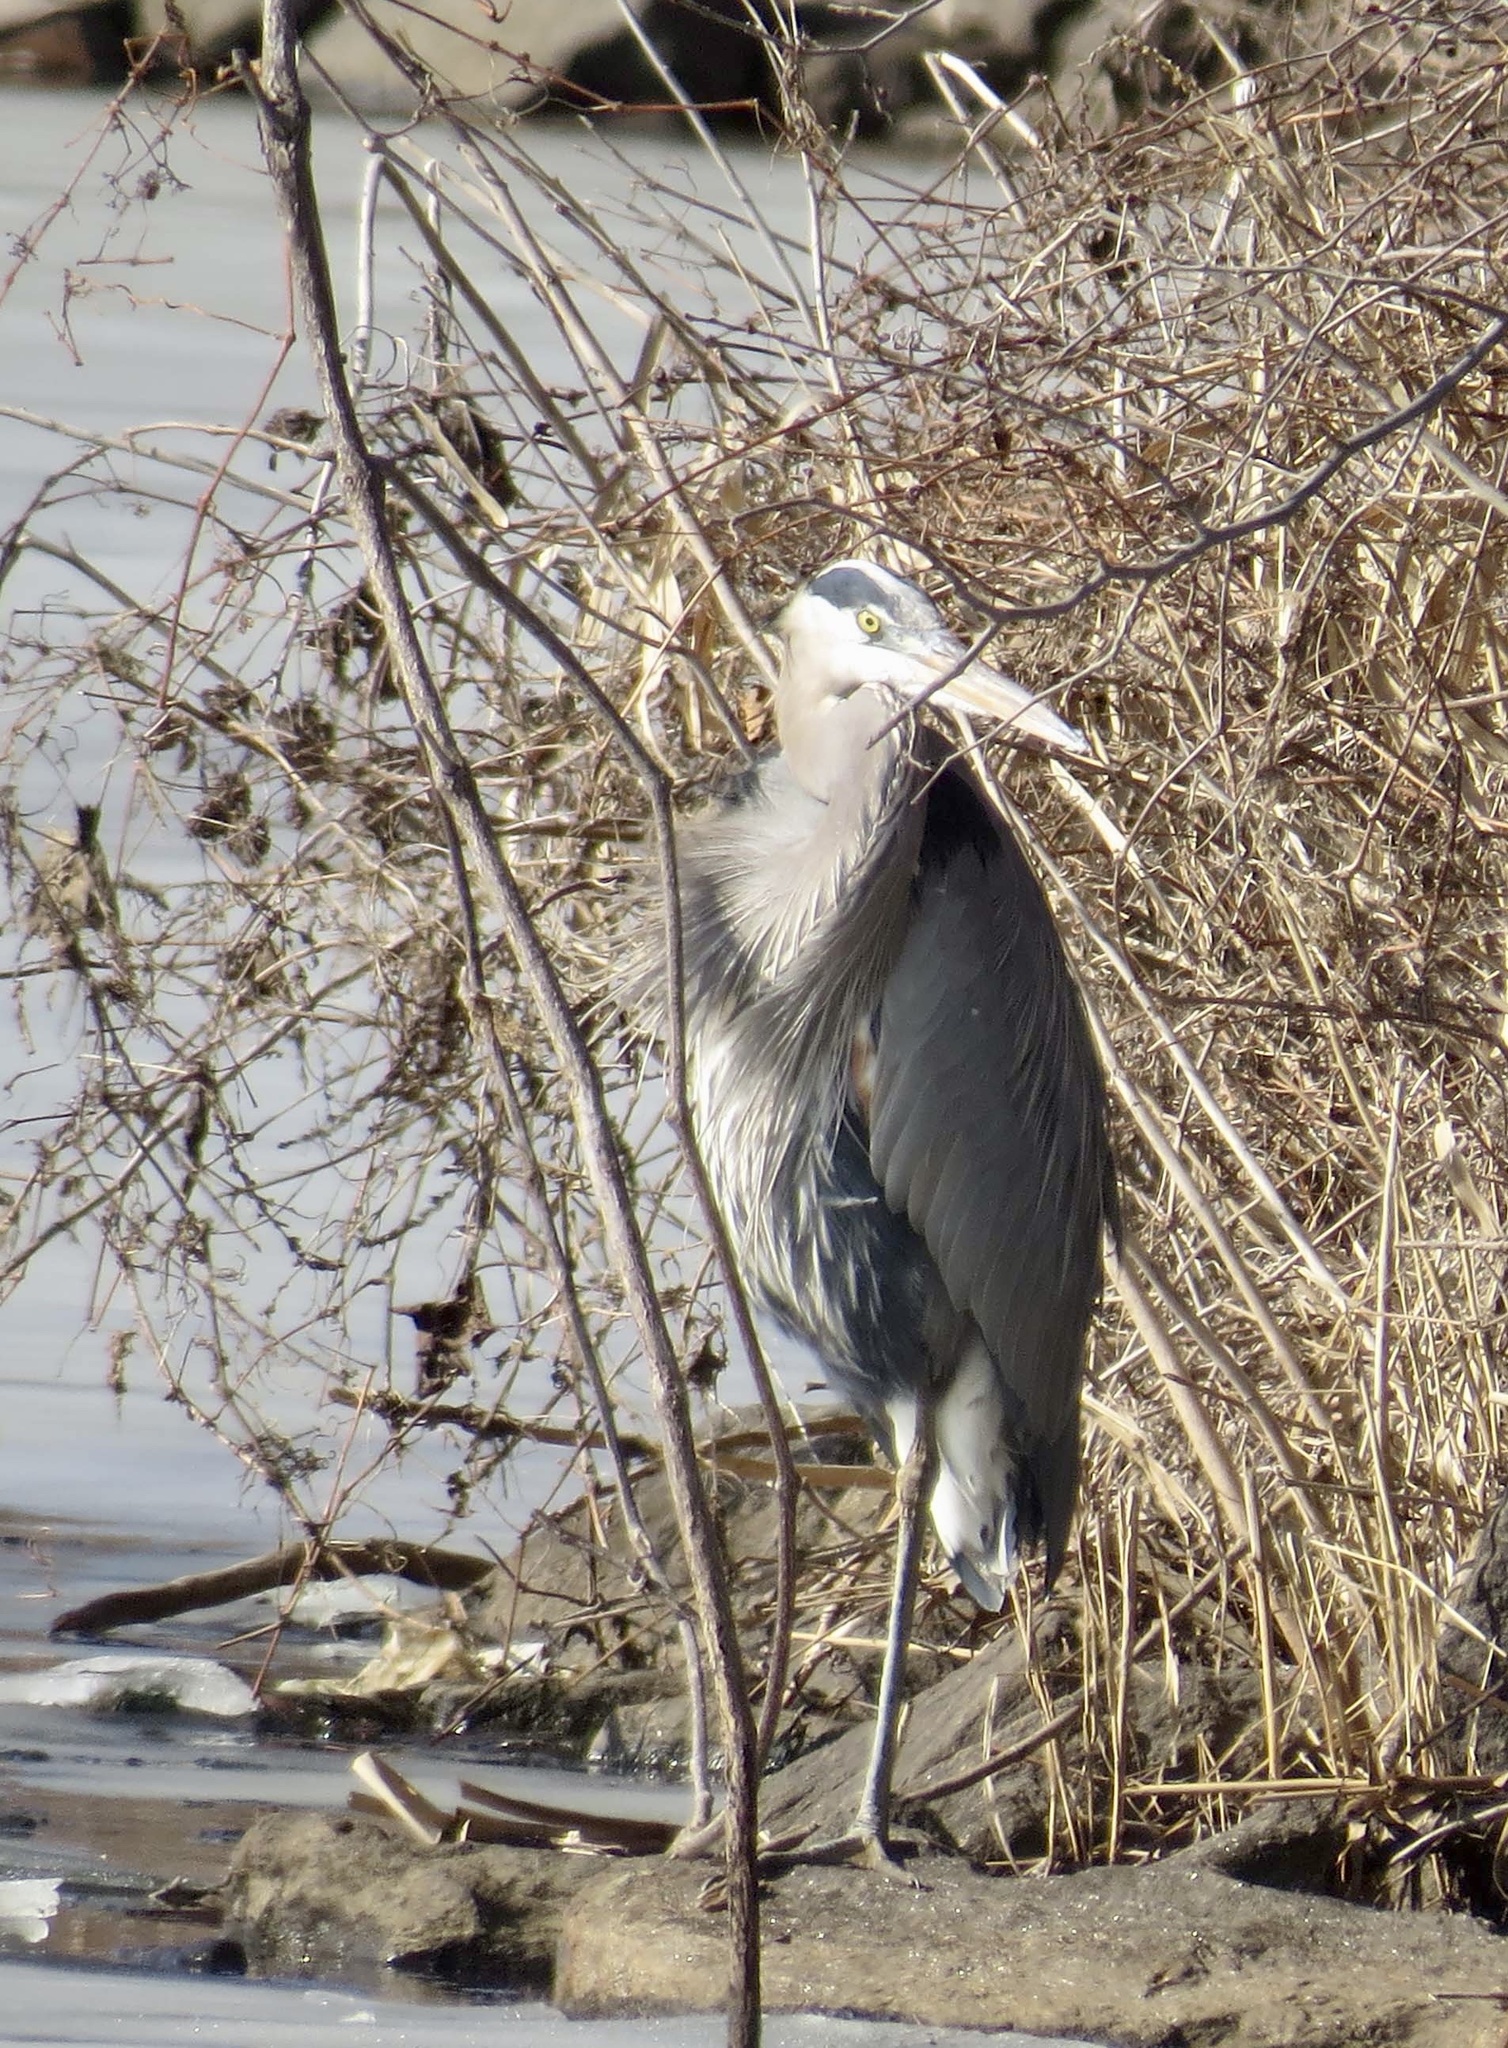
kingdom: Animalia
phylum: Chordata
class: Aves
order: Pelecaniformes
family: Ardeidae
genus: Ardea
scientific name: Ardea herodias
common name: Great blue heron
